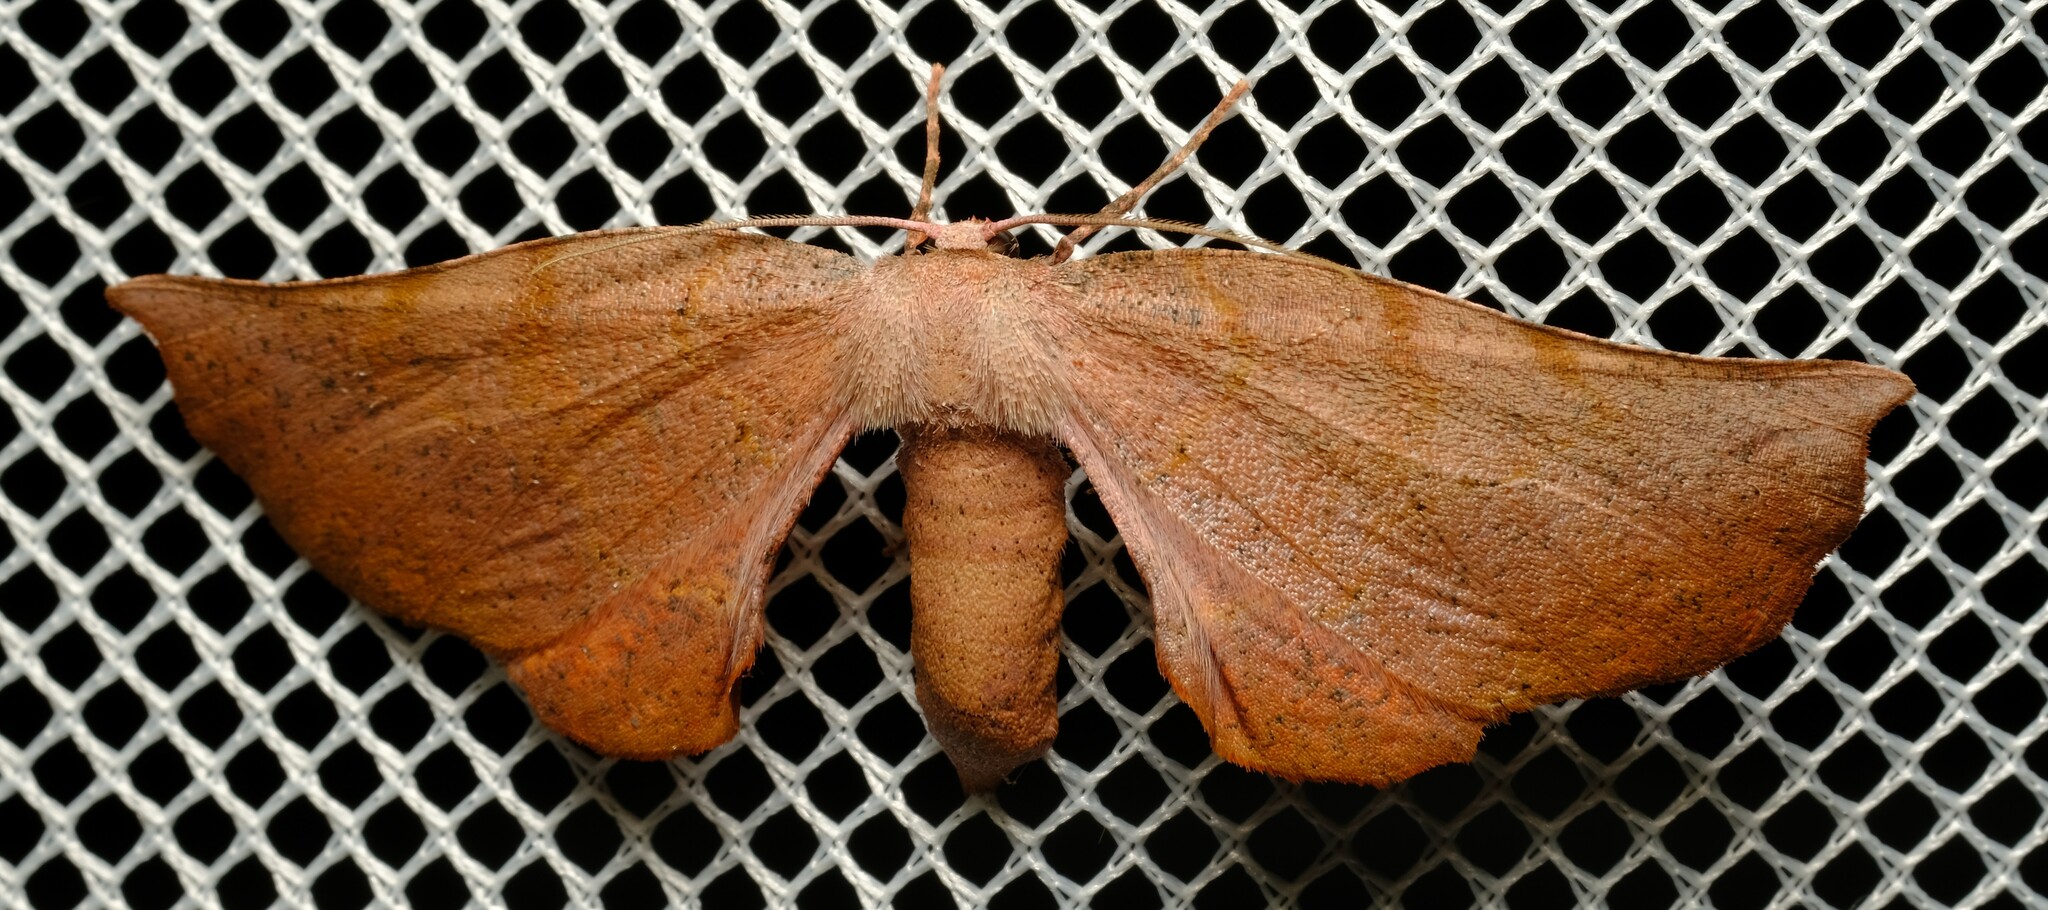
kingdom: Animalia
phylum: Arthropoda
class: Insecta
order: Lepidoptera
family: Geometridae
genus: Parepisparis
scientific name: Parepisparis multicolora
